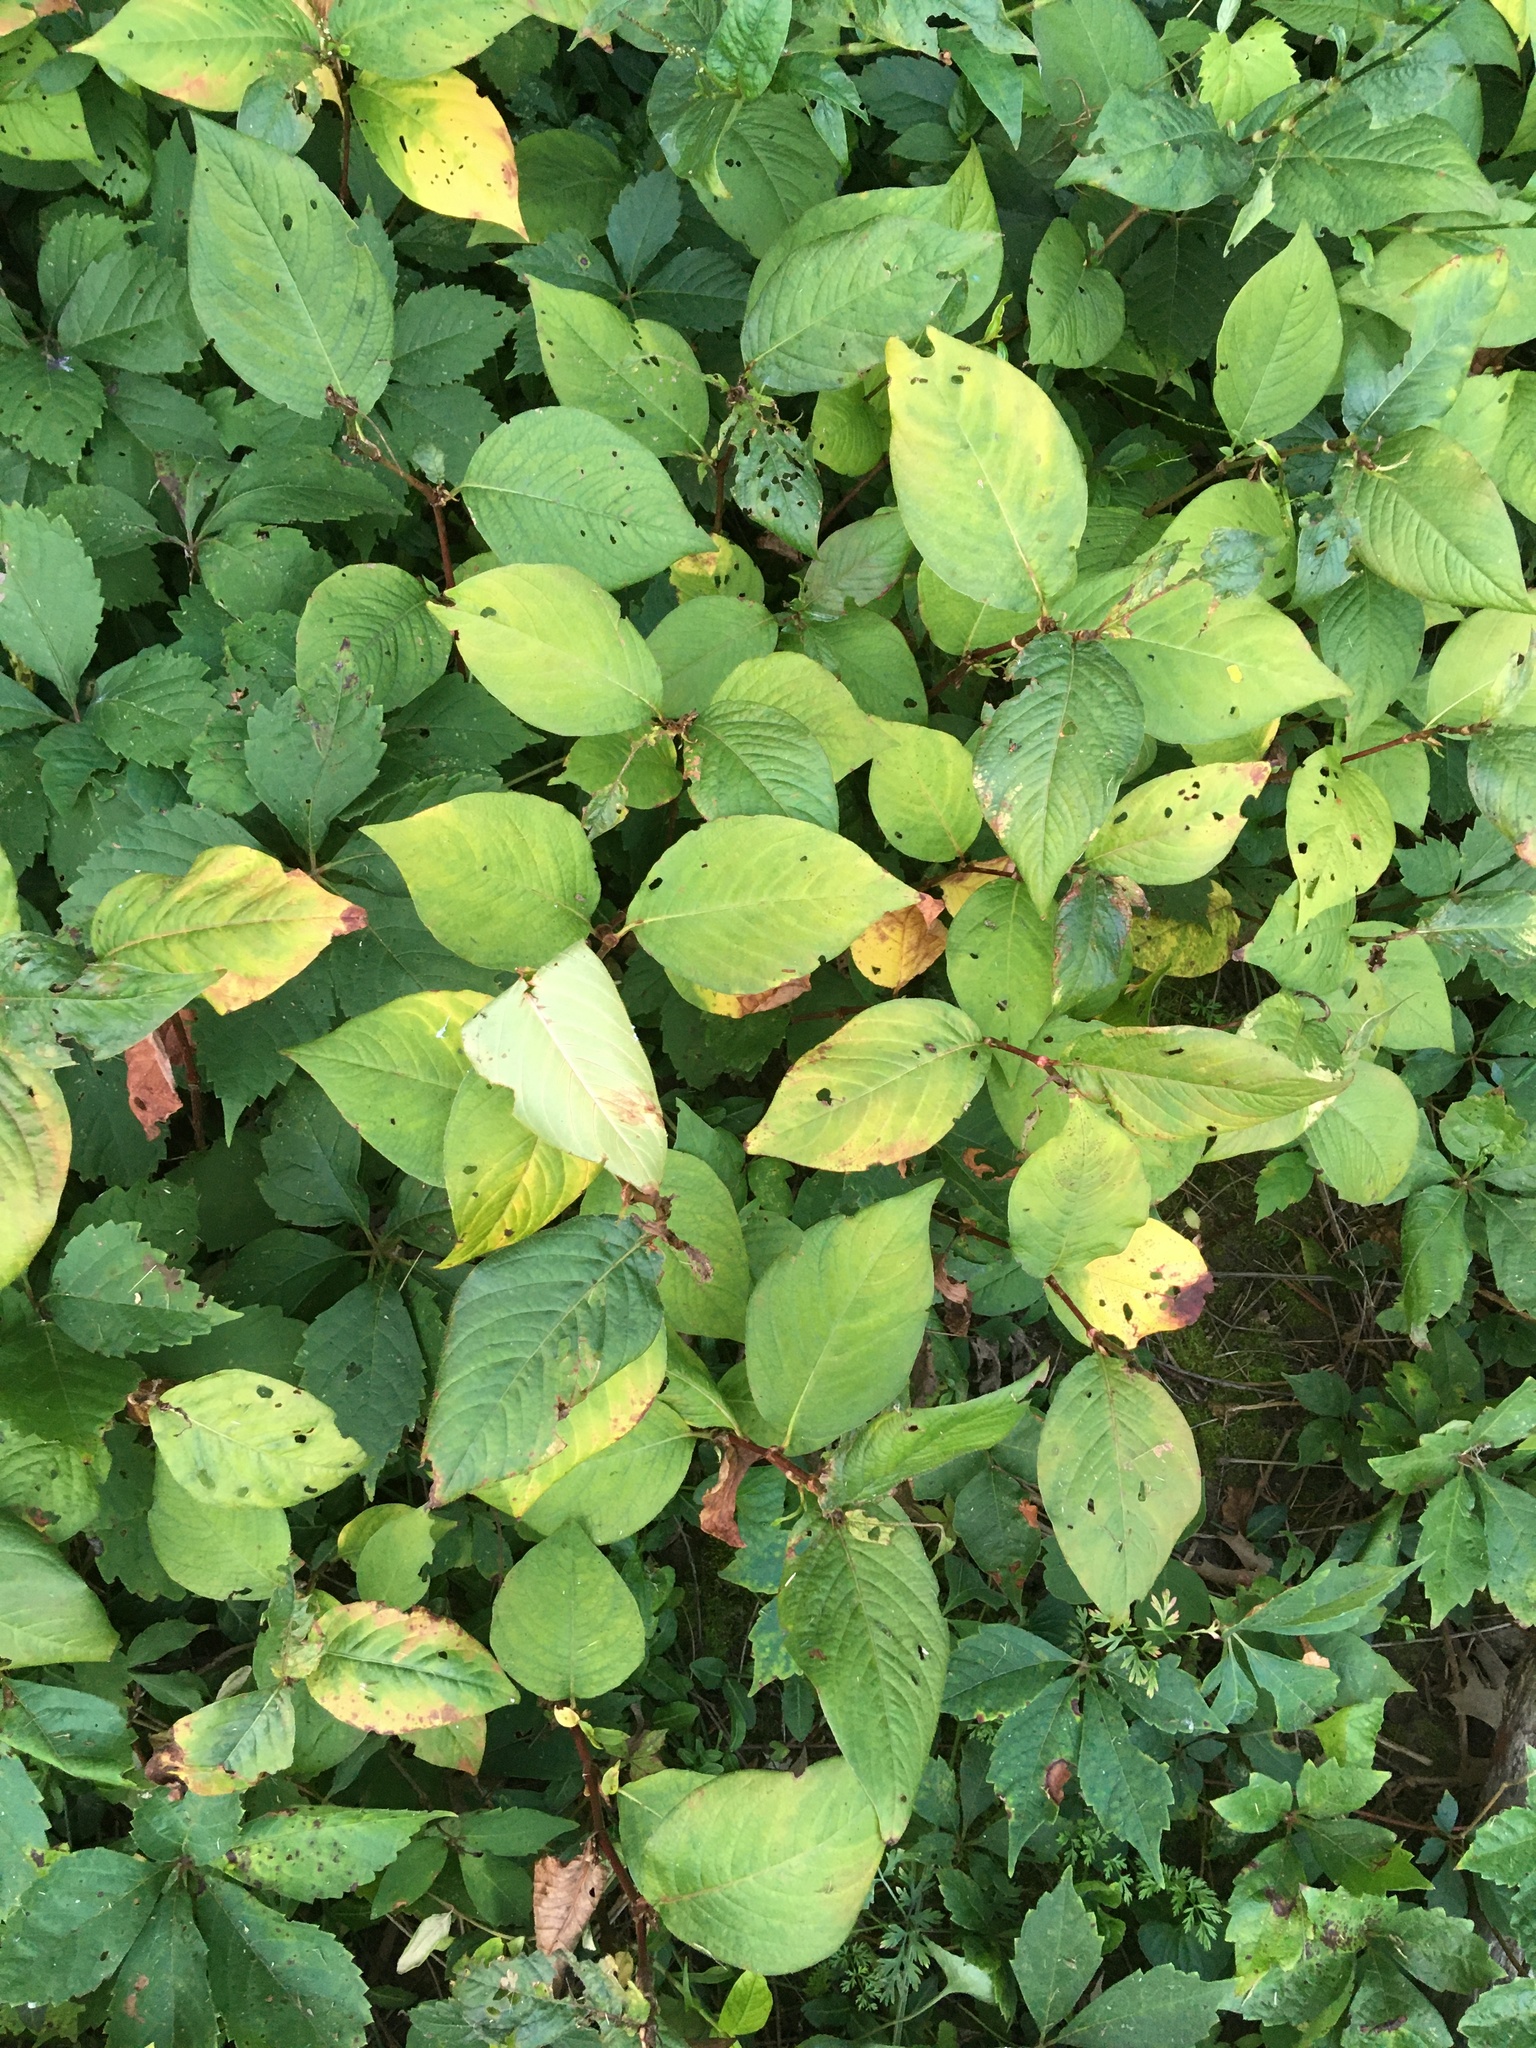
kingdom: Plantae
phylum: Tracheophyta
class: Magnoliopsida
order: Caryophyllales
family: Polygonaceae
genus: Persicaria
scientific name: Persicaria virginiana
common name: Jumpseed
